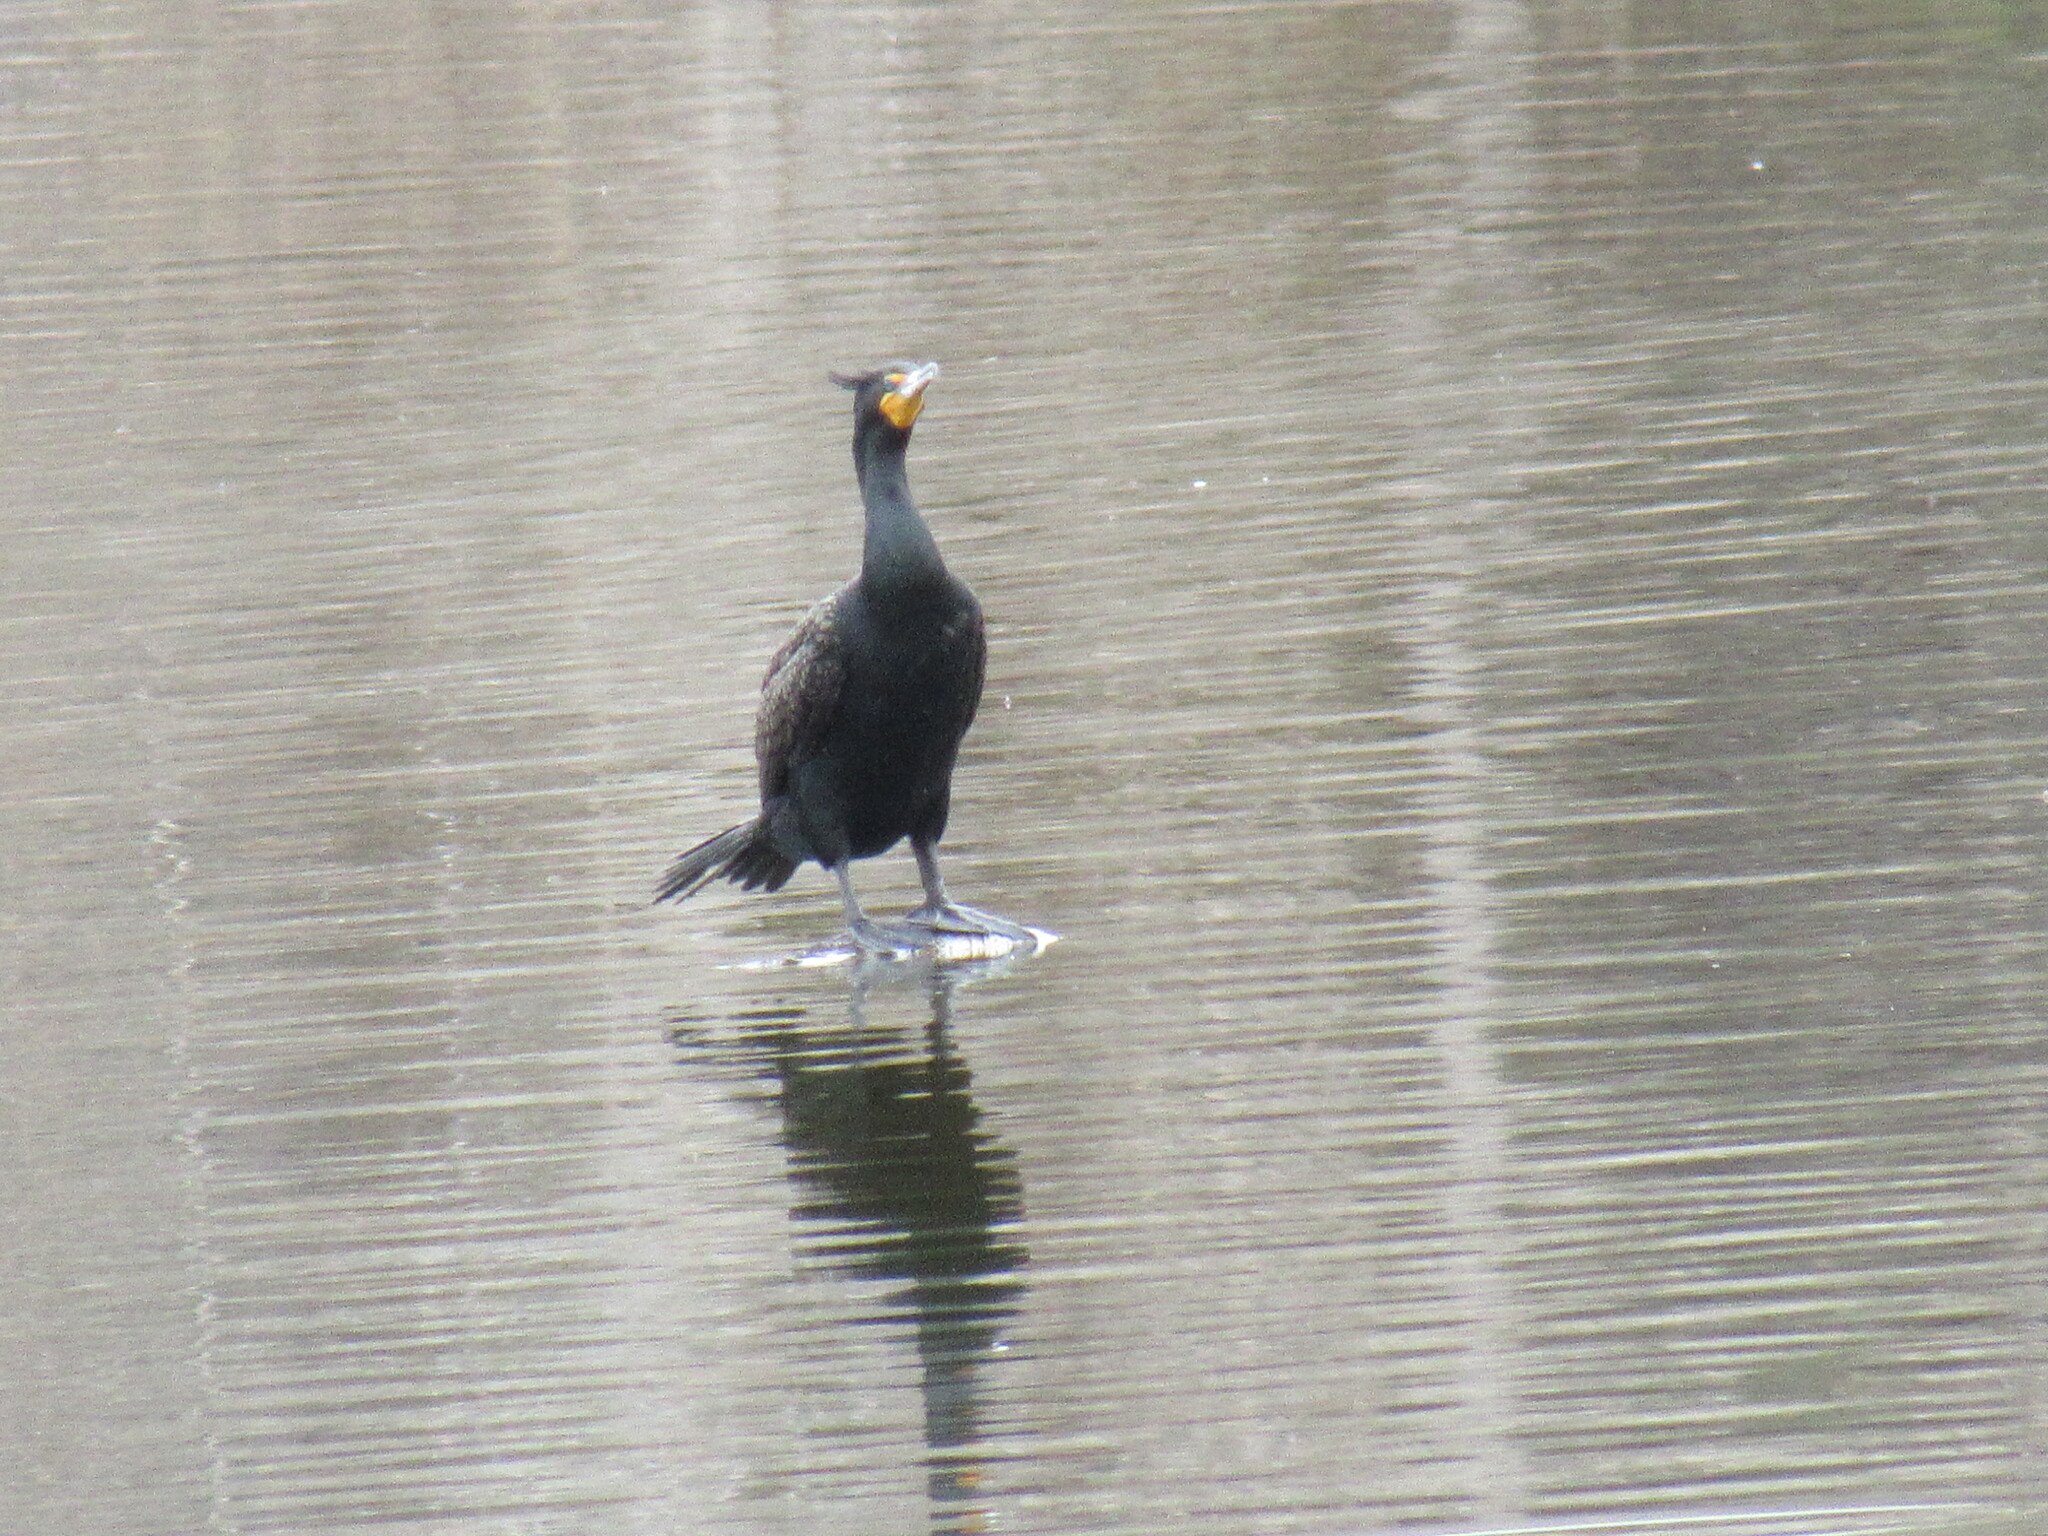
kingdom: Animalia
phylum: Chordata
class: Aves
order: Suliformes
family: Phalacrocoracidae
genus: Phalacrocorax
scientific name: Phalacrocorax auritus
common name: Double-crested cormorant
